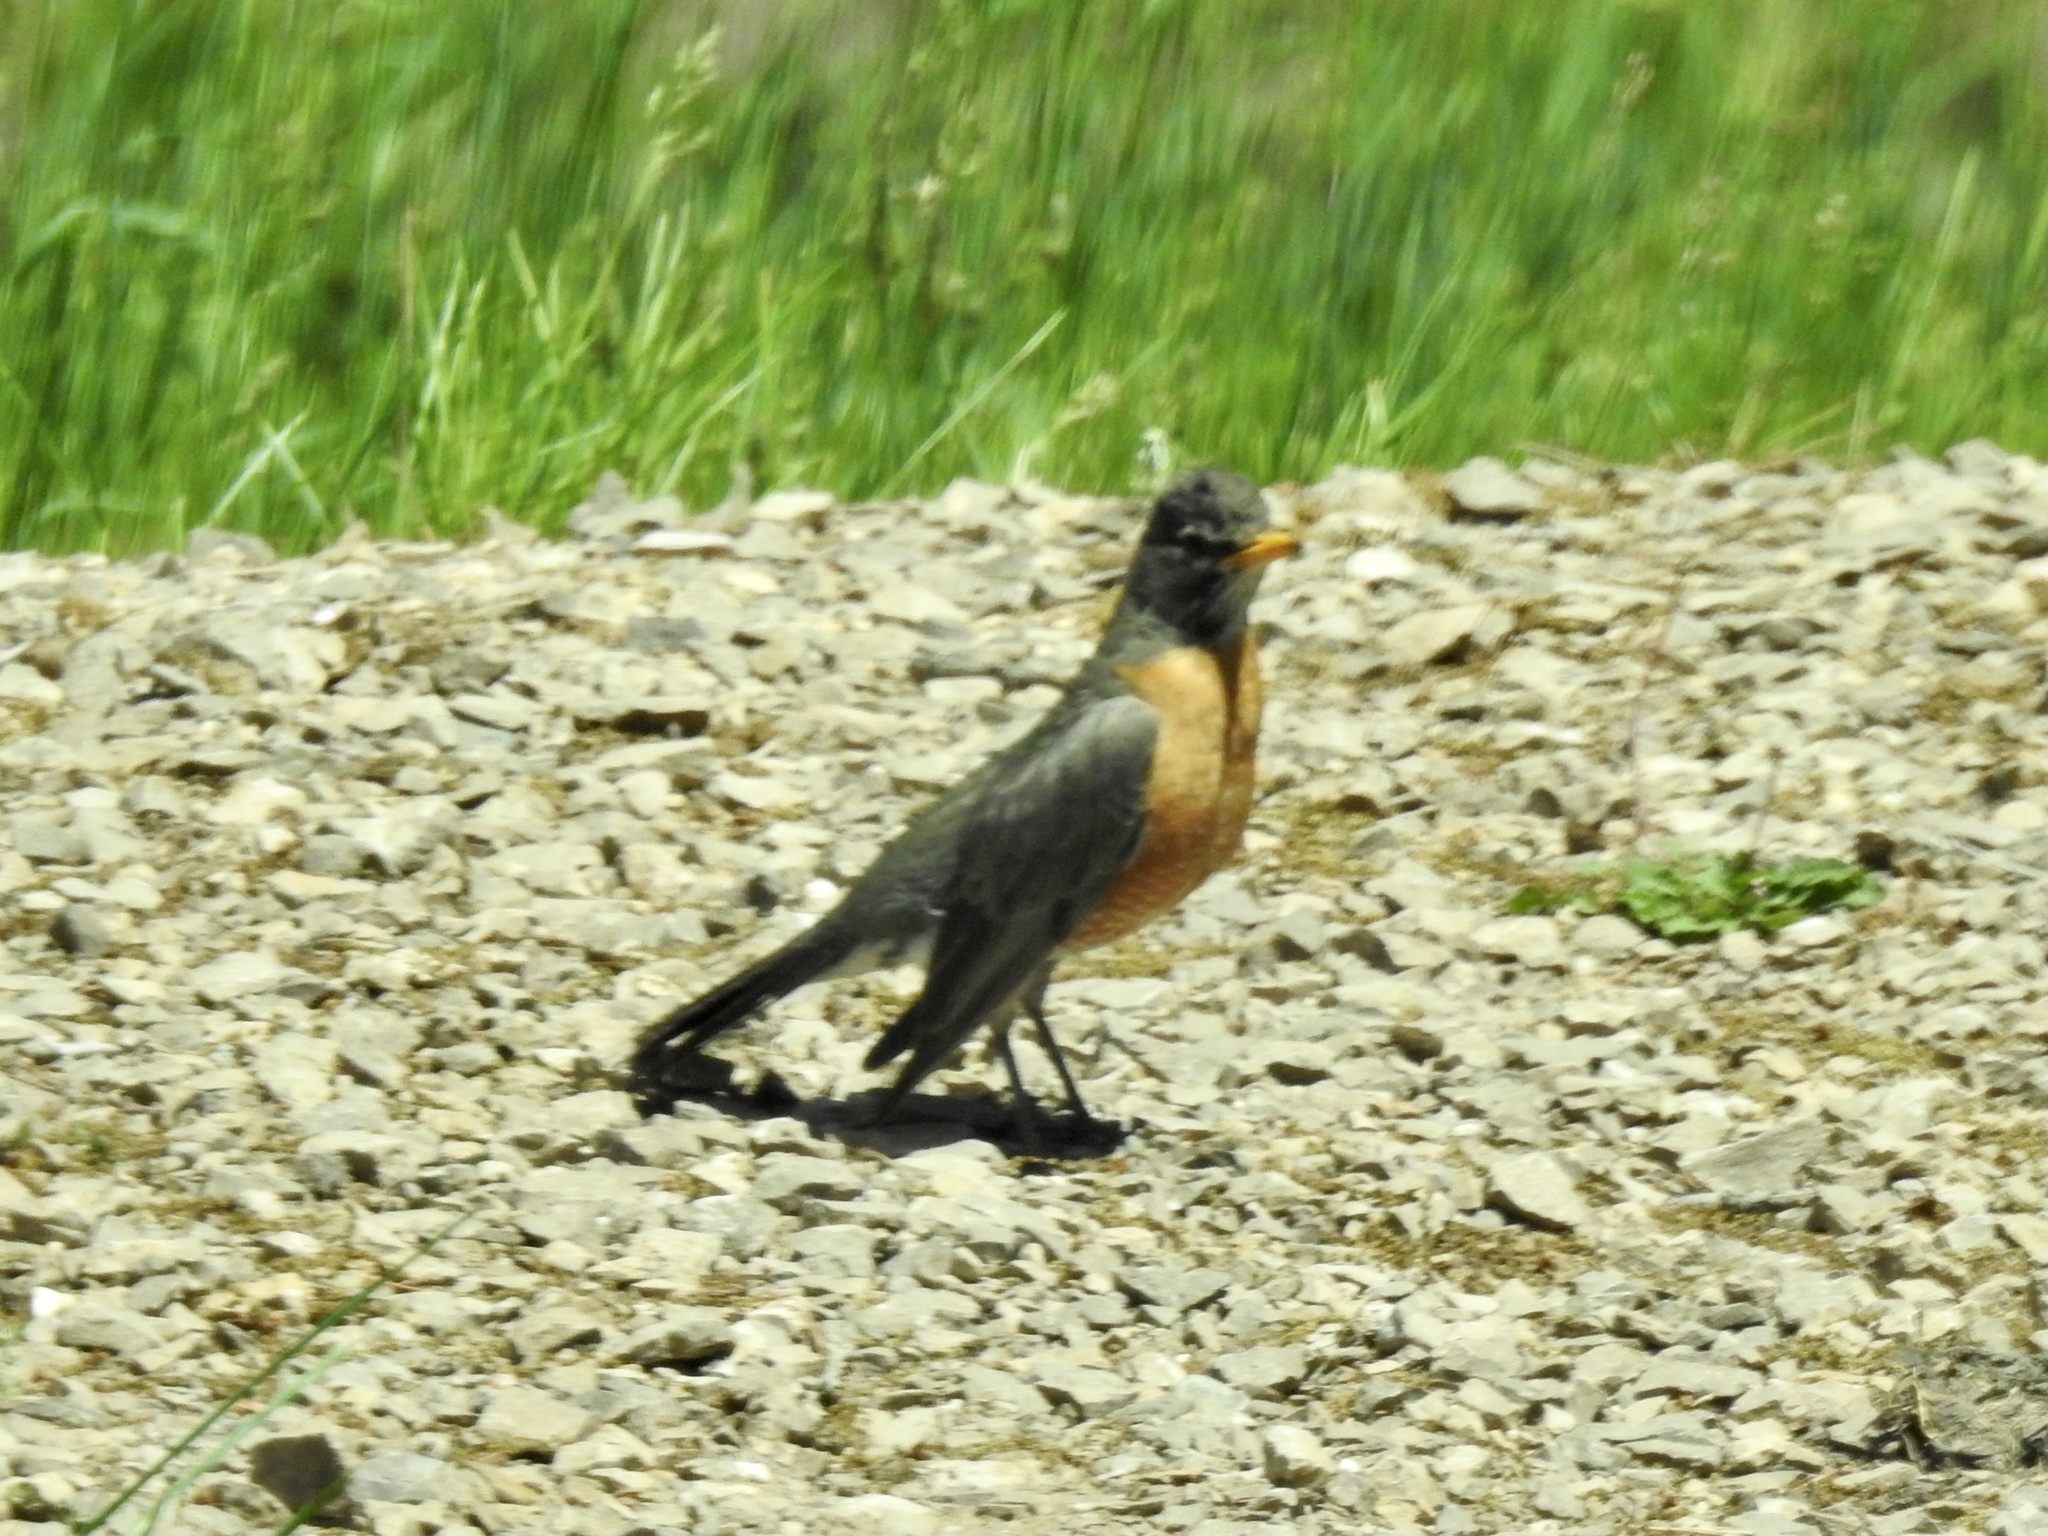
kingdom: Animalia
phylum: Chordata
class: Aves
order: Passeriformes
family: Turdidae
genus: Turdus
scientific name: Turdus migratorius
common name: American robin
